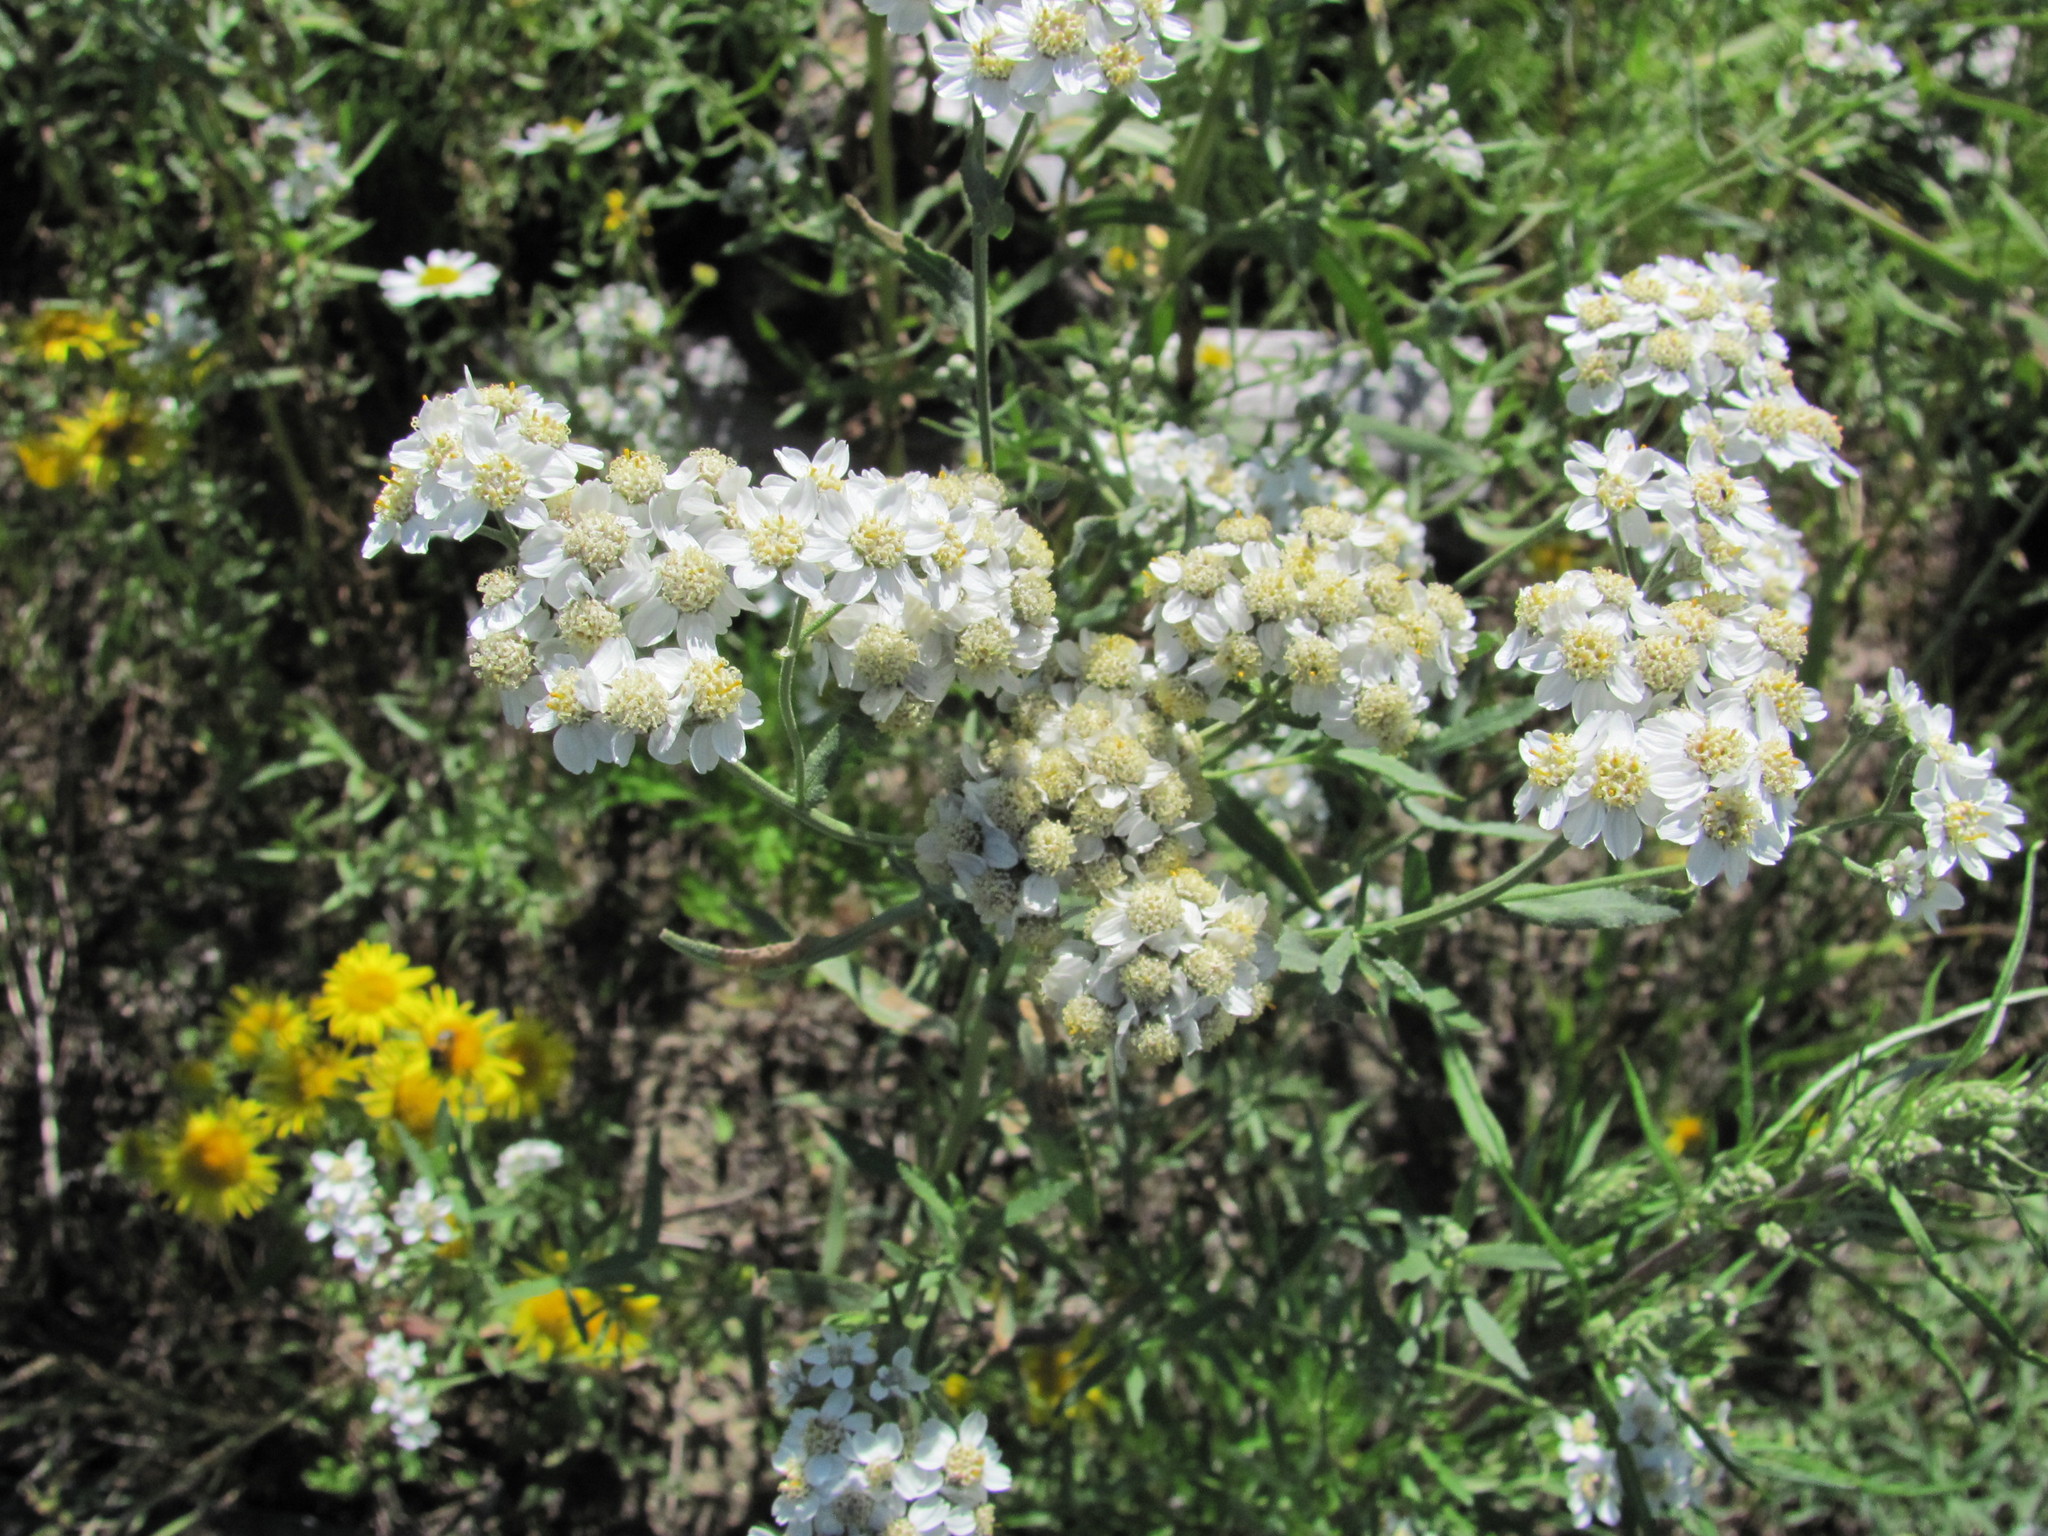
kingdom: Plantae
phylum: Tracheophyta
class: Magnoliopsida
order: Asterales
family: Asteraceae
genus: Achillea
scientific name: Achillea salicifolia
